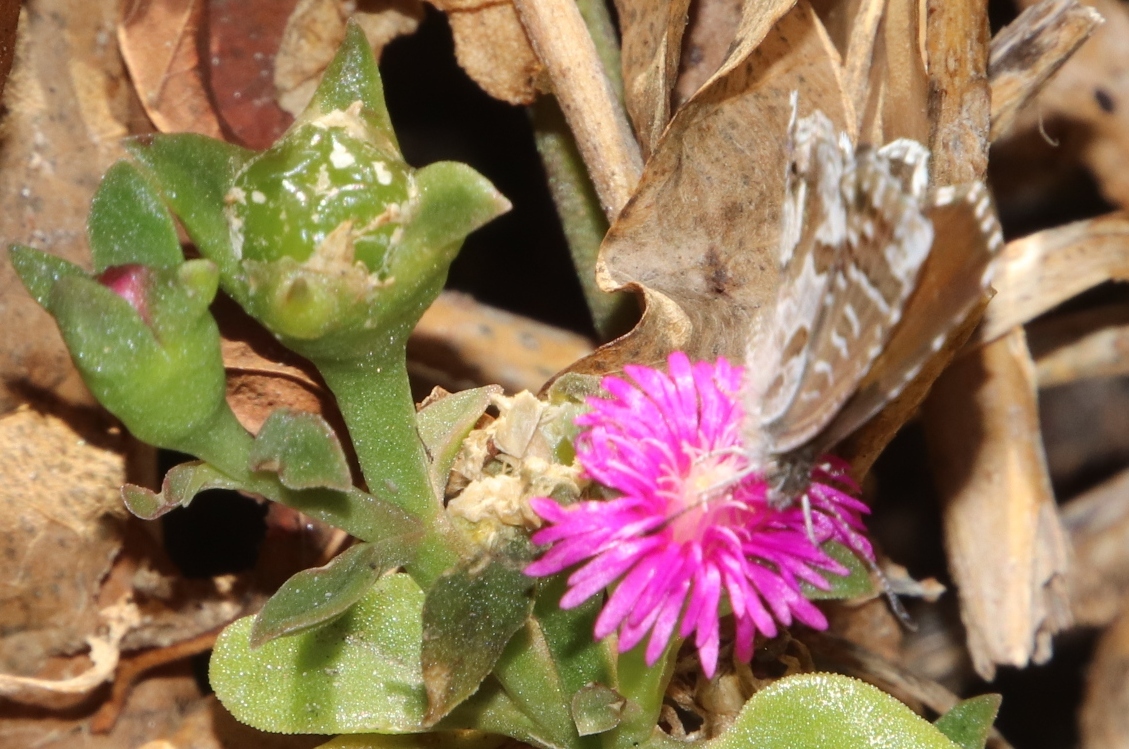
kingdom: Animalia
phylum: Arthropoda
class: Insecta
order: Lepidoptera
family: Lycaenidae
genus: Cacyreus
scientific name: Cacyreus fracta
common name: Water bronze
